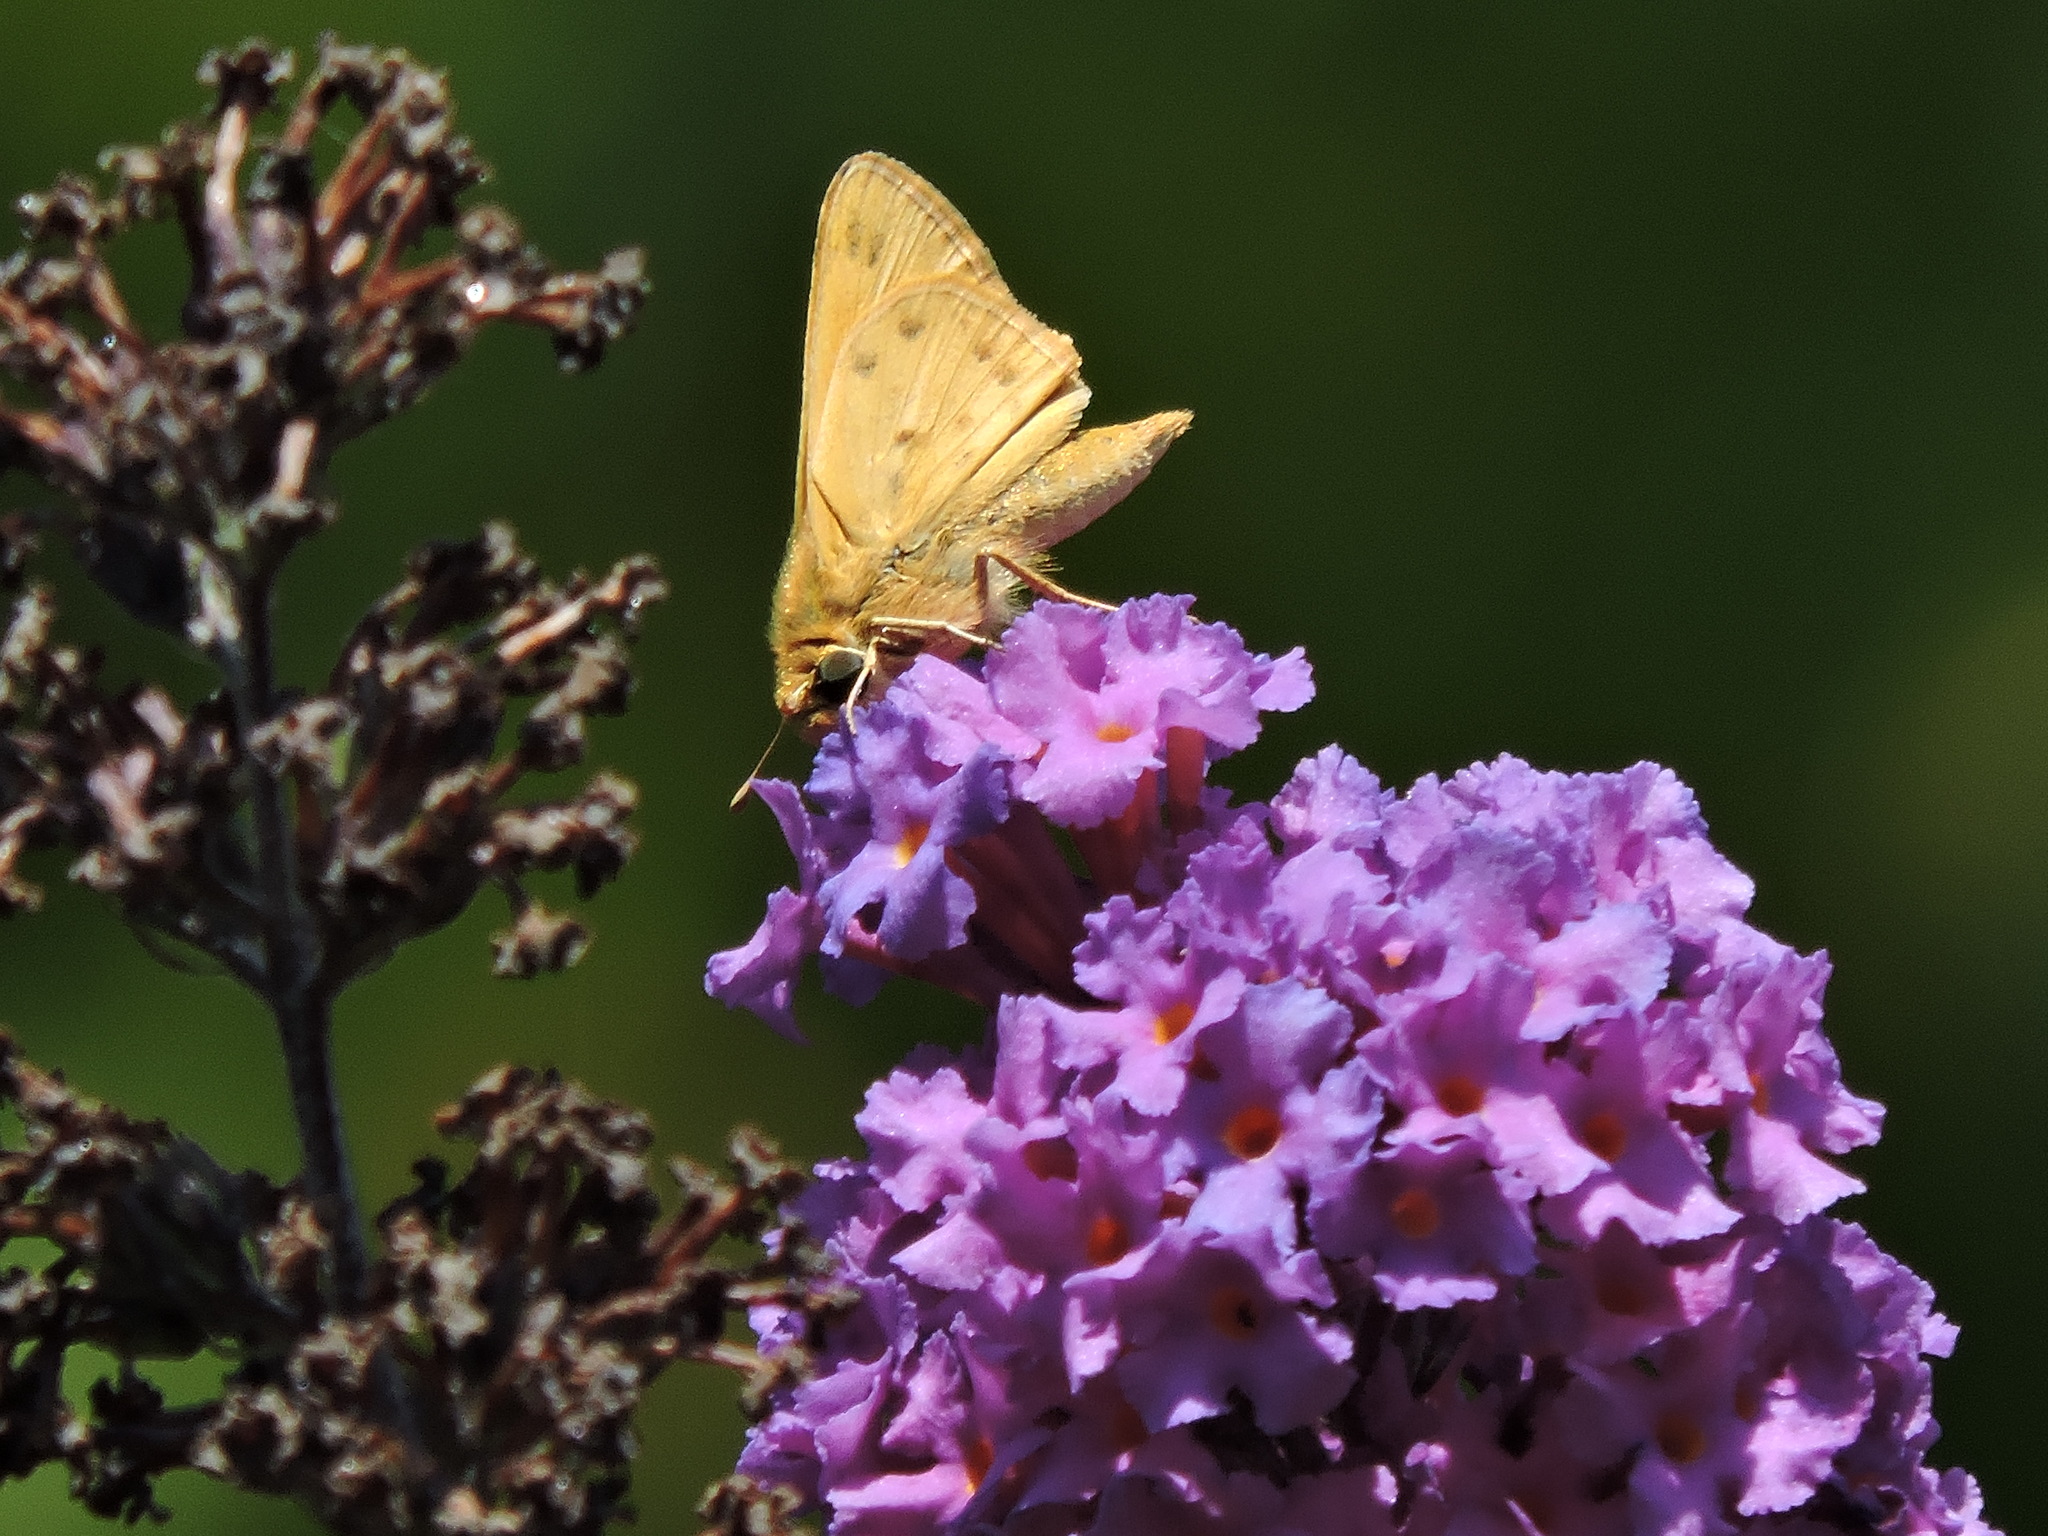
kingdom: Animalia
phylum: Arthropoda
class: Insecta
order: Lepidoptera
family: Hesperiidae
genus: Hylephila
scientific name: Hylephila phyleus
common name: Fiery skipper
